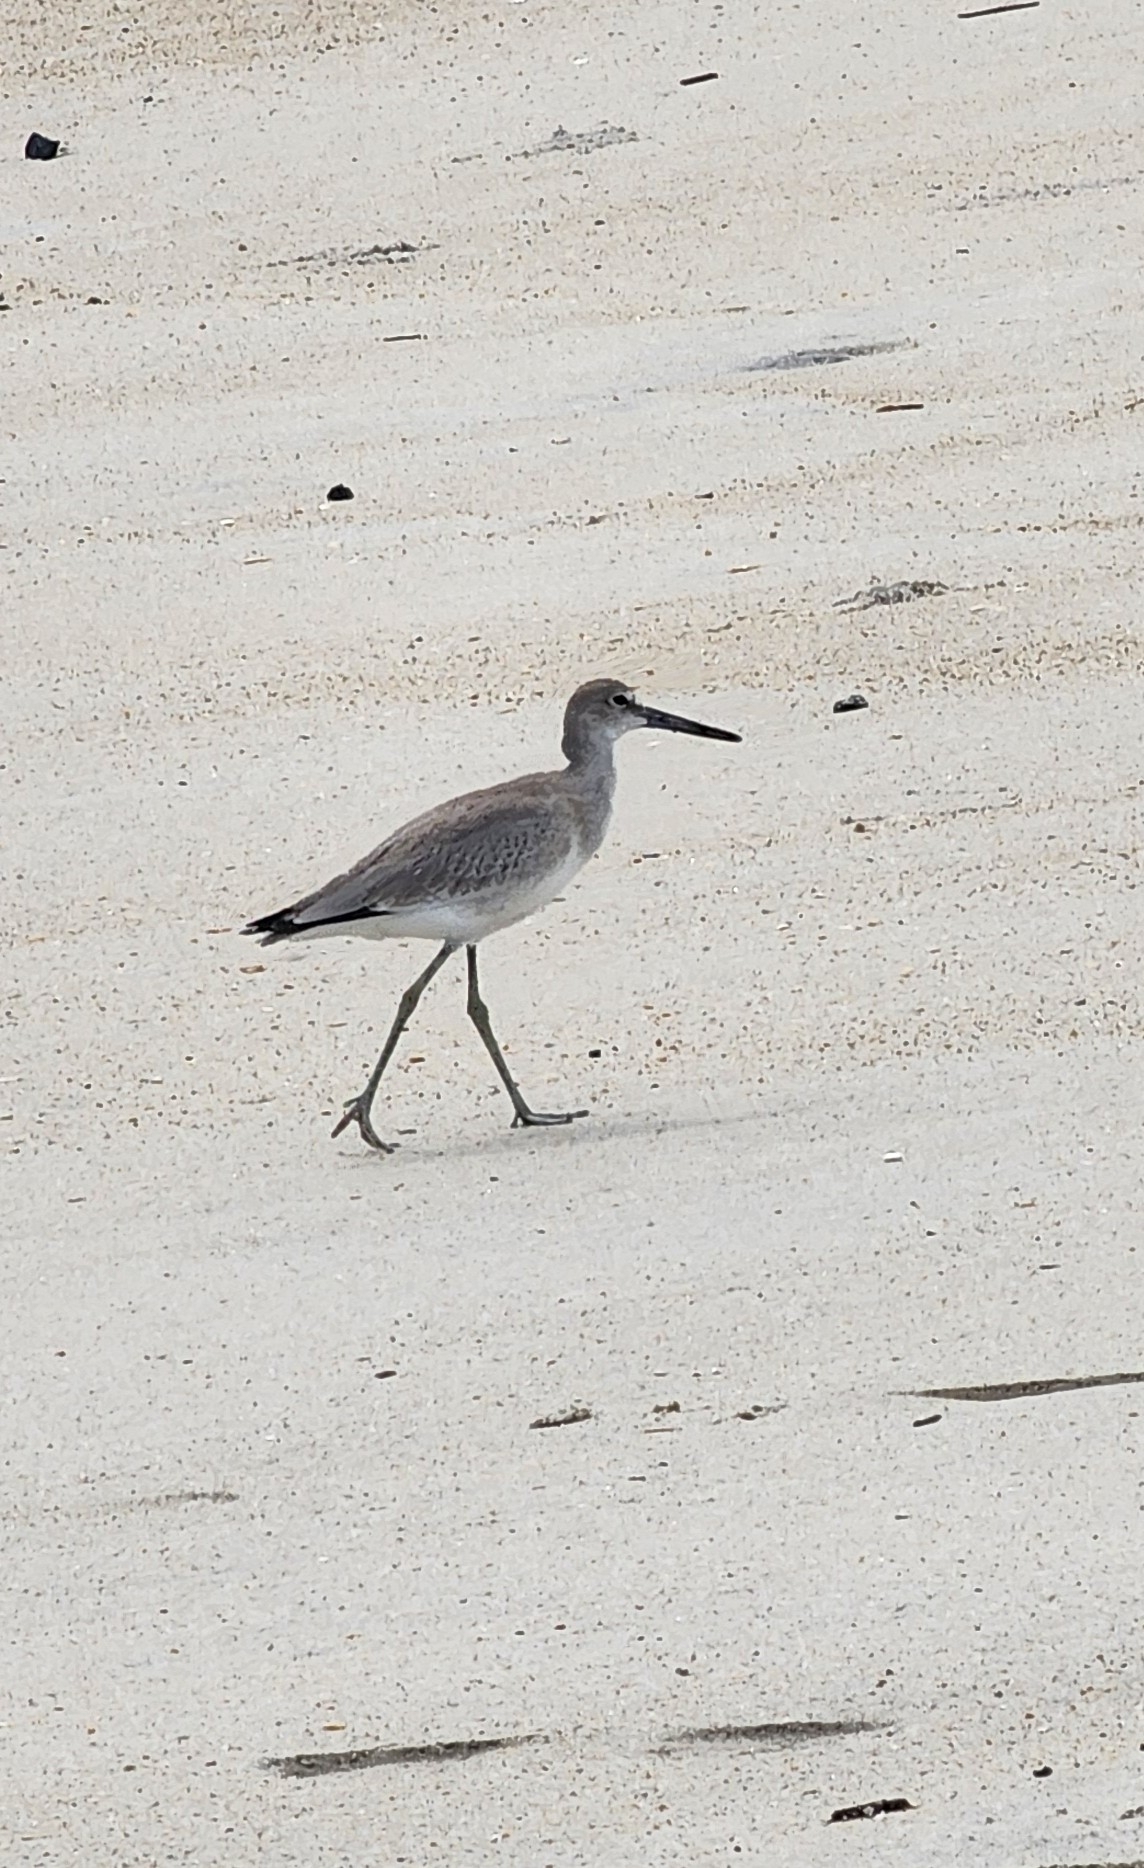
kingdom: Animalia
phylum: Chordata
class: Aves
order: Charadriiformes
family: Scolopacidae
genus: Tringa
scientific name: Tringa semipalmata
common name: Willet
